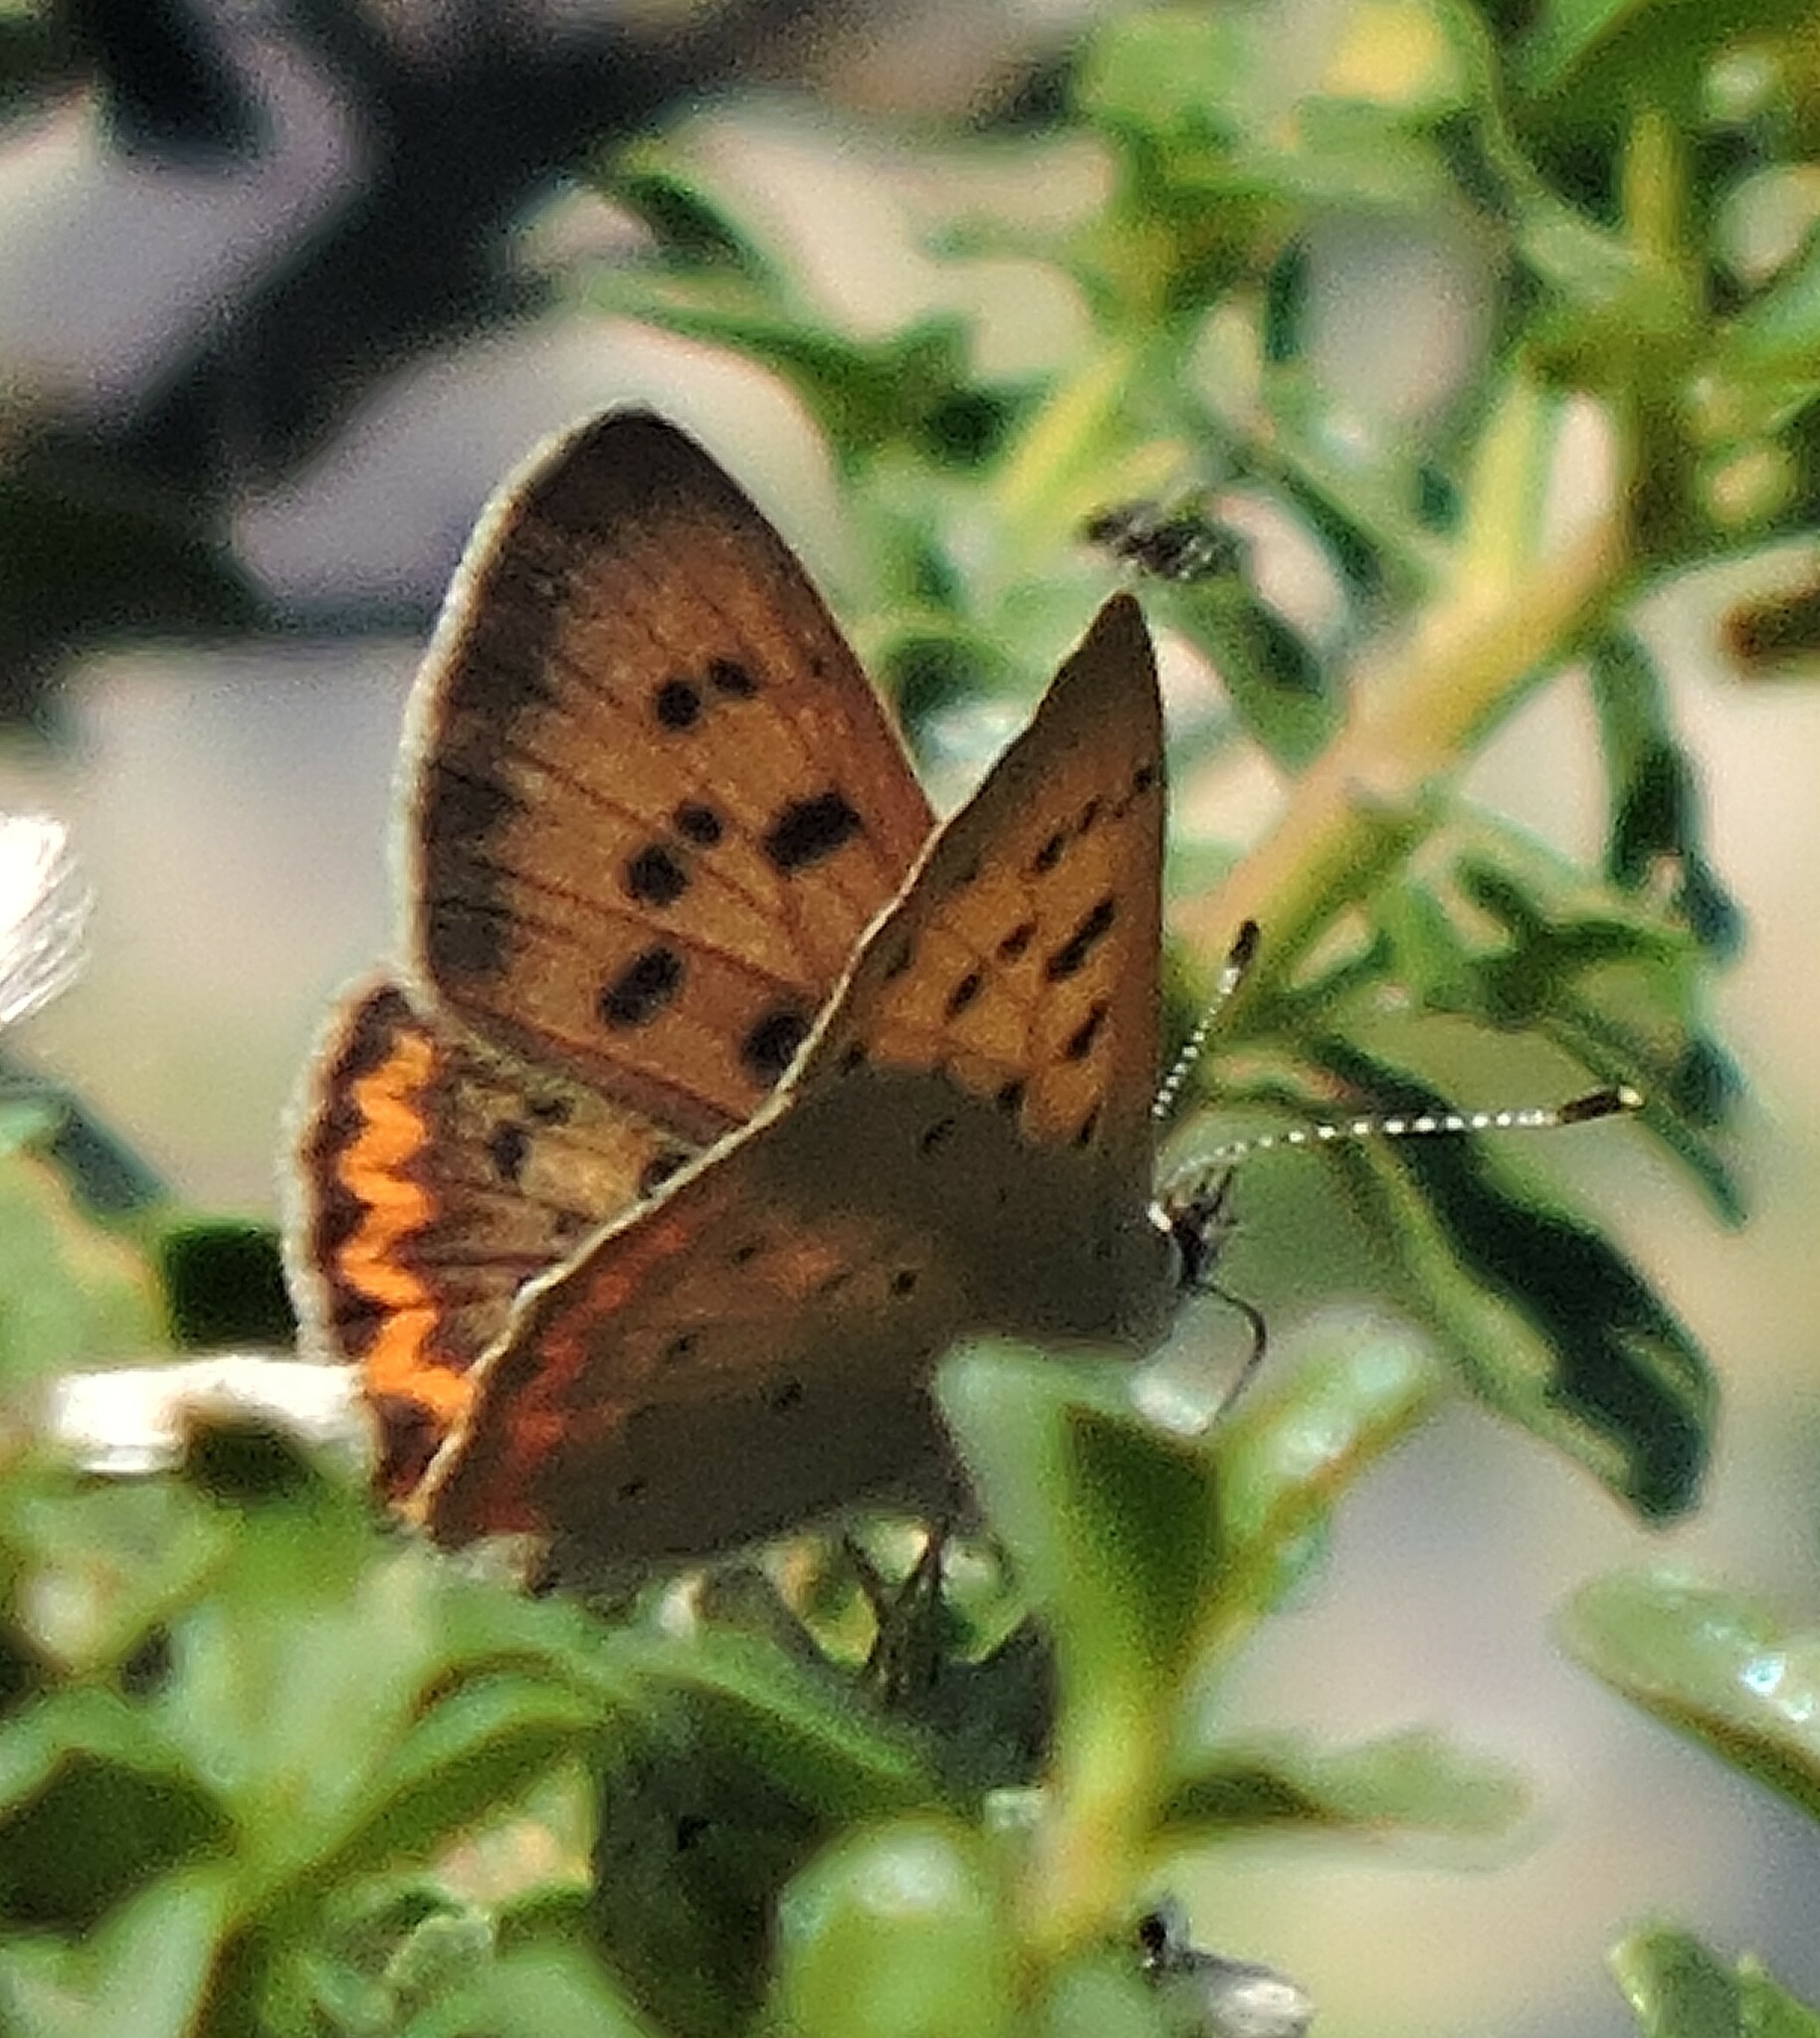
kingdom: Animalia
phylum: Arthropoda
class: Insecta
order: Lepidoptera
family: Lycaenidae
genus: Tharsalea
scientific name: Tharsalea helloides
